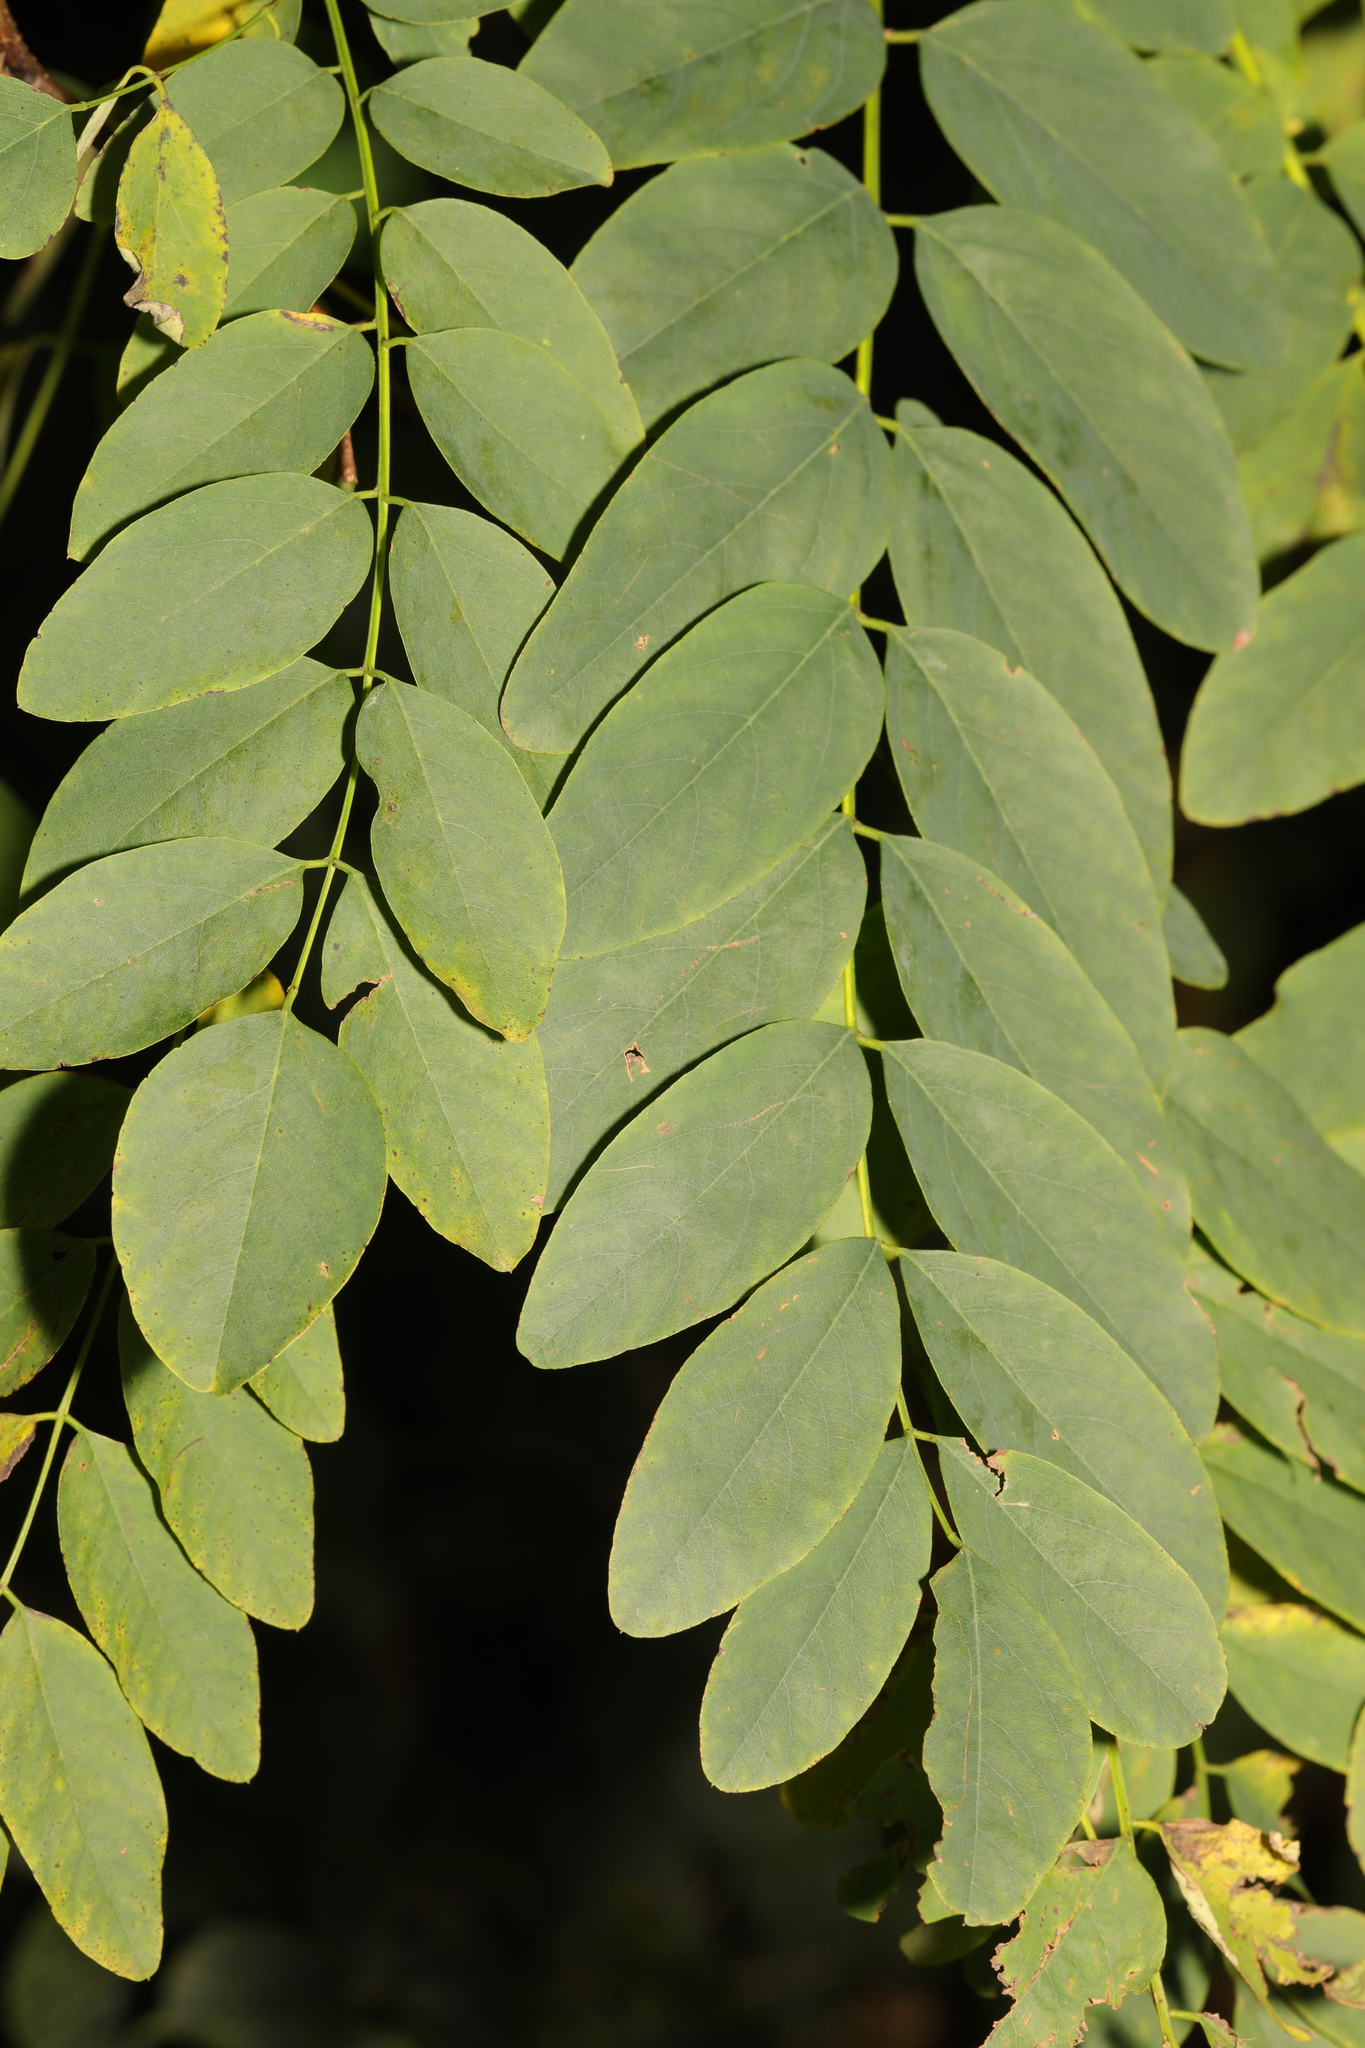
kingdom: Plantae
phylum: Tracheophyta
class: Magnoliopsida
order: Fabales
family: Fabaceae
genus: Robinia
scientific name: Robinia pseudoacacia
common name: Black locust
